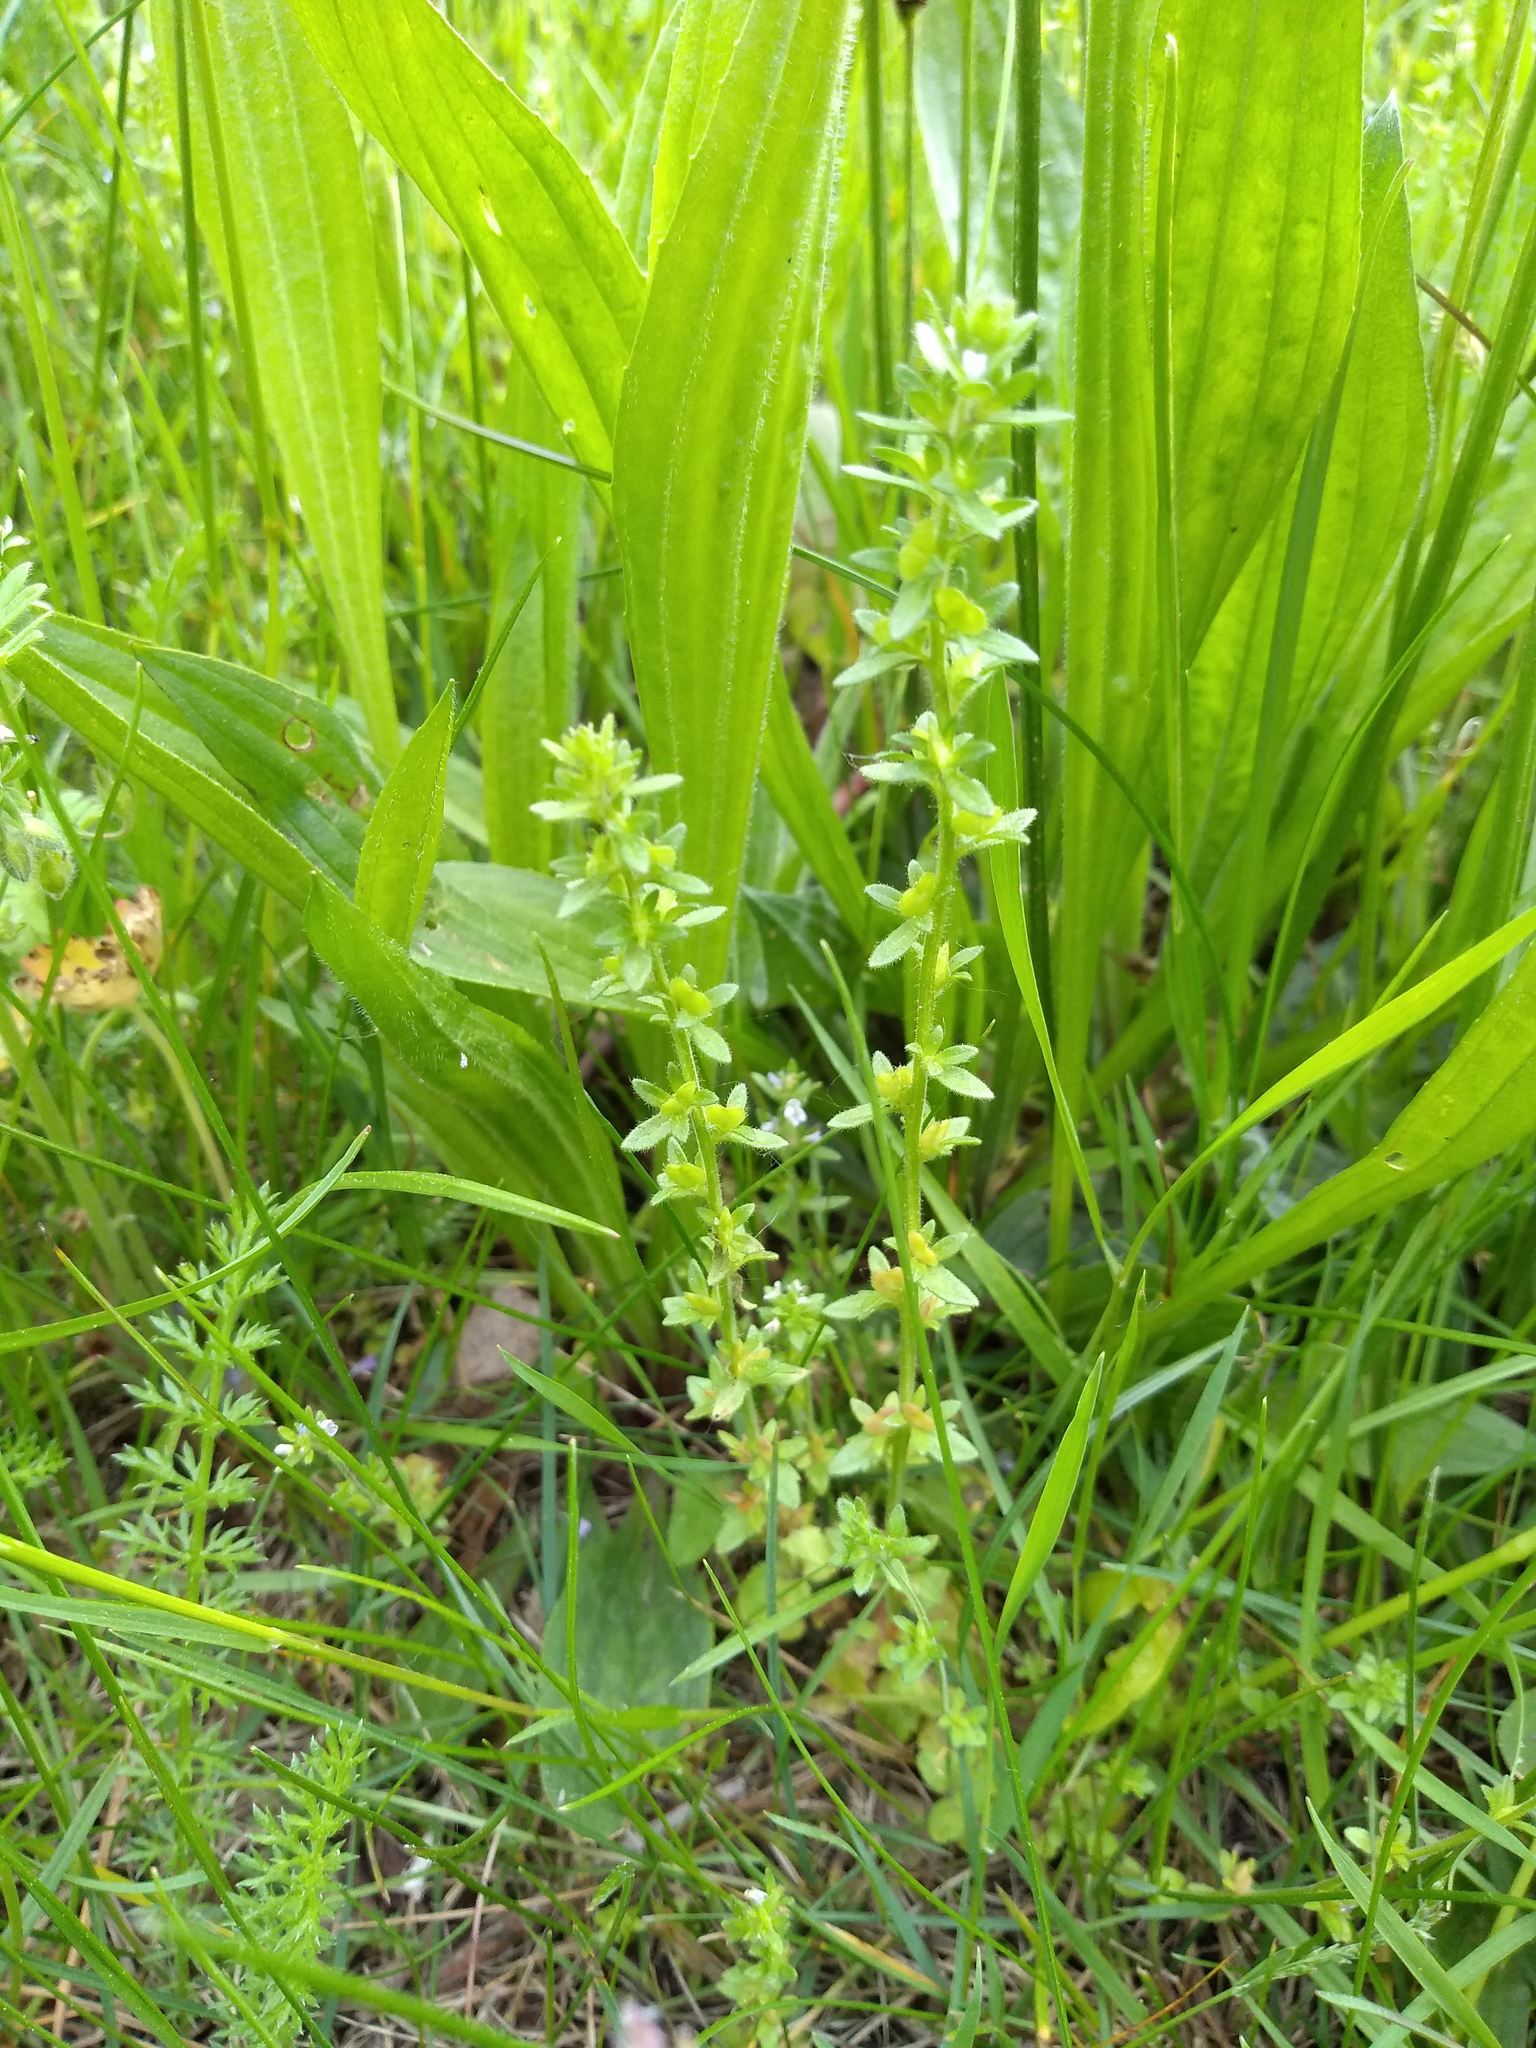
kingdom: Plantae
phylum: Tracheophyta
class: Magnoliopsida
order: Lamiales
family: Plantaginaceae
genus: Veronica
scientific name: Veronica serpyllifolia
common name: Thyme-leaved speedwell
